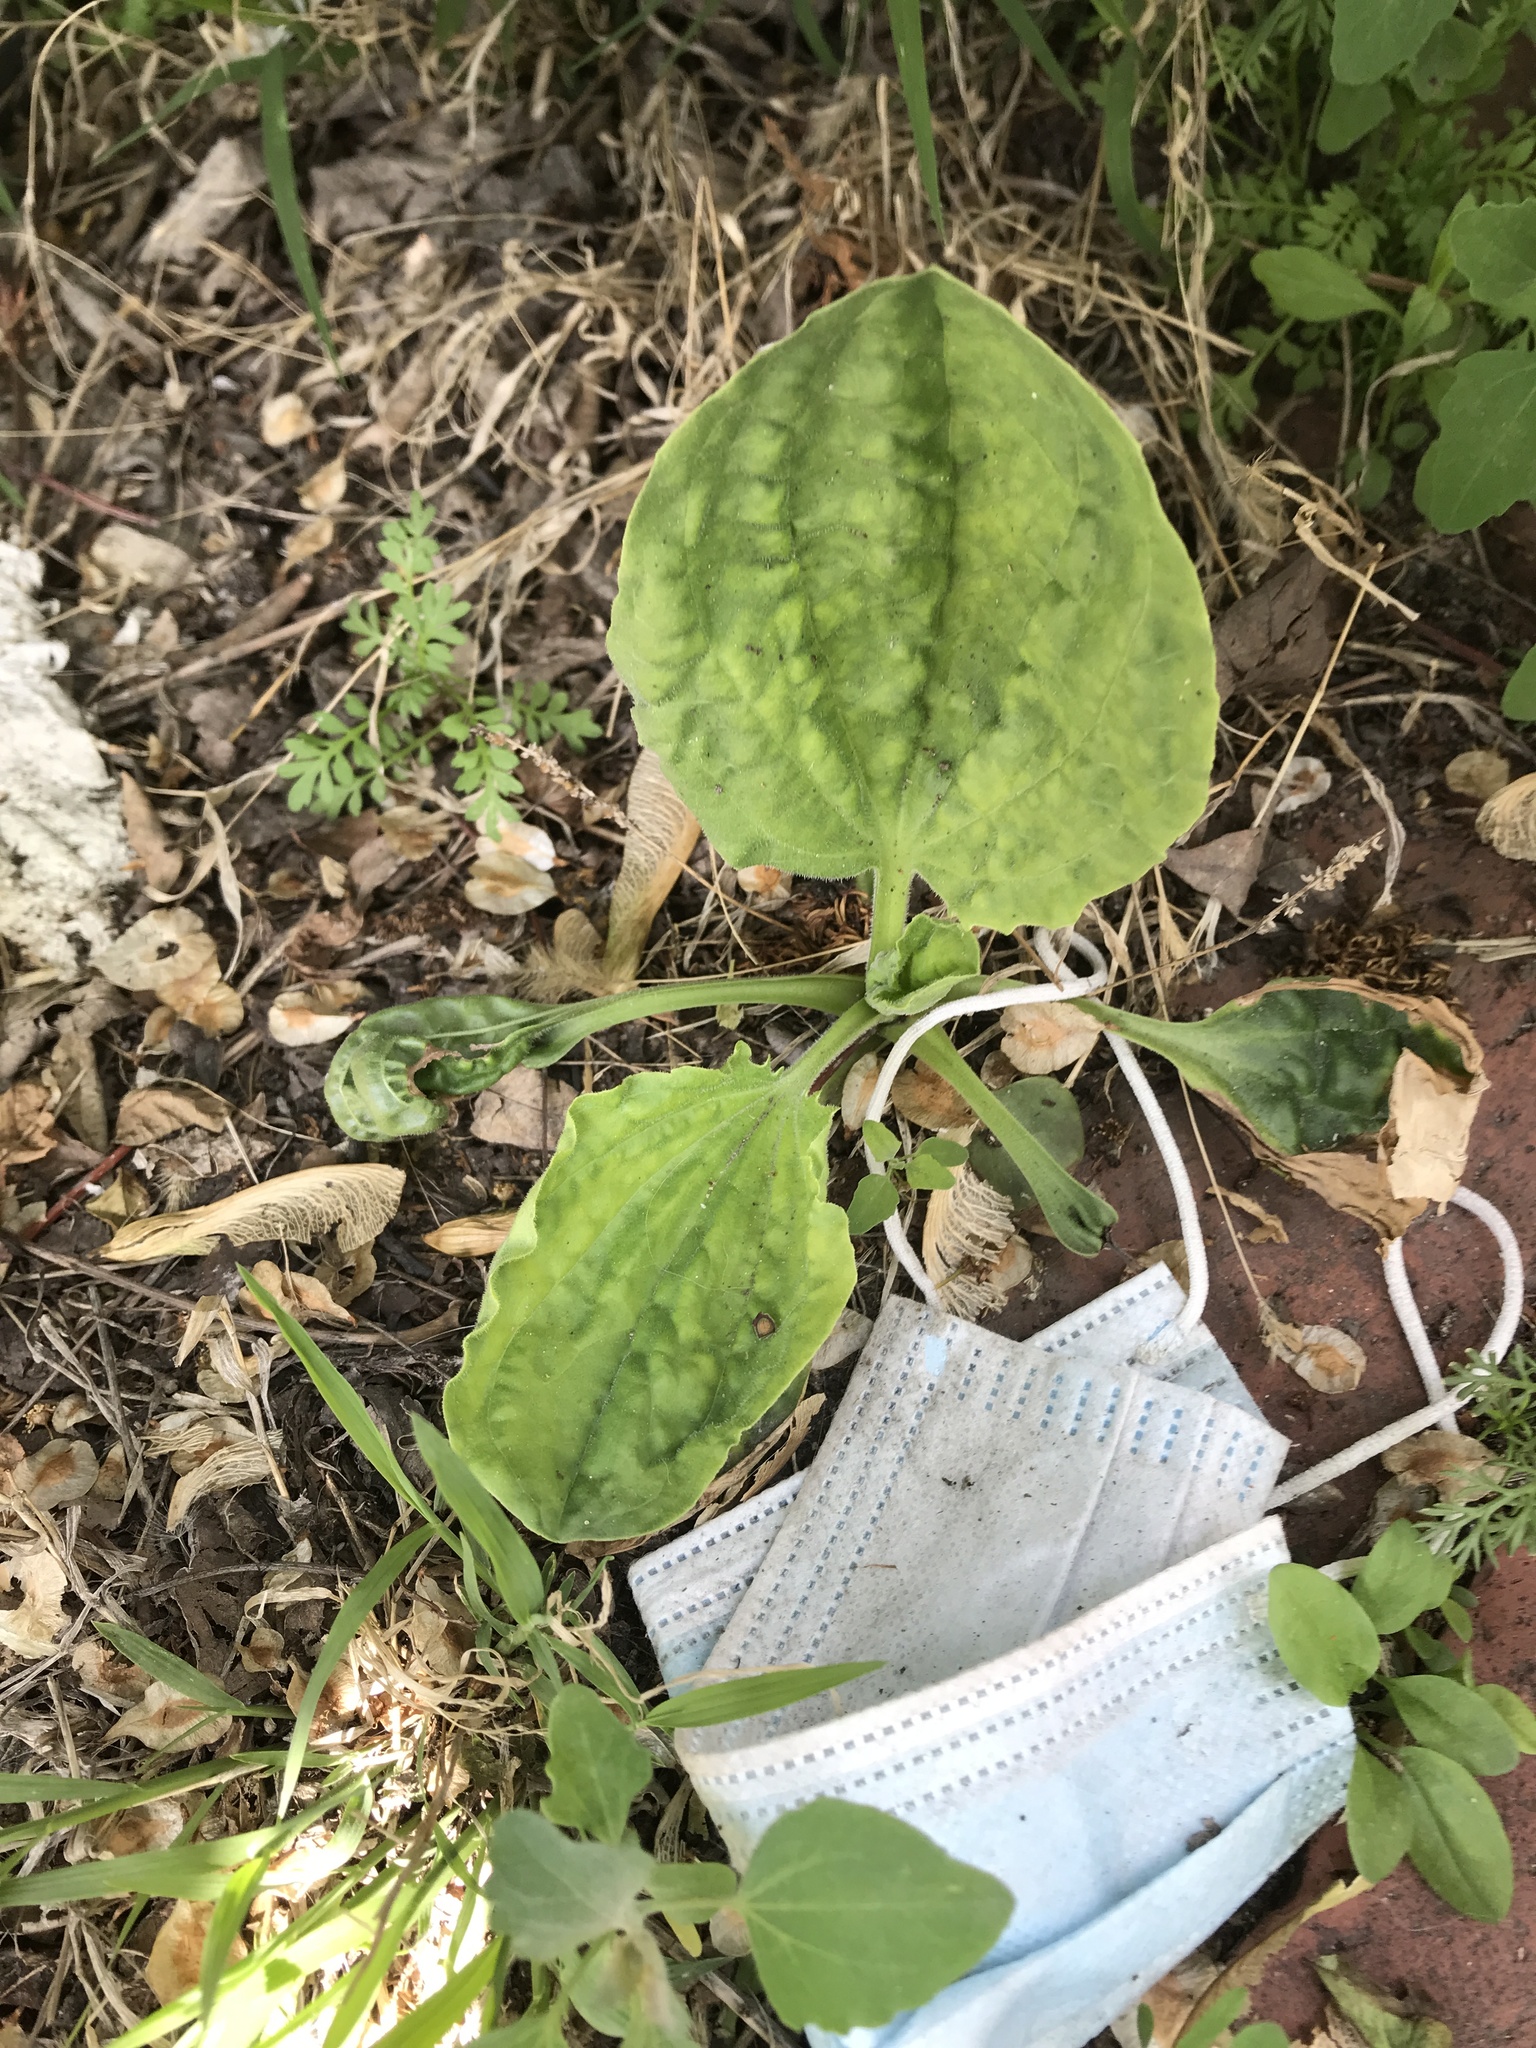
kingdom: Plantae
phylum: Tracheophyta
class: Magnoliopsida
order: Lamiales
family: Plantaginaceae
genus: Plantago
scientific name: Plantago major
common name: Common plantain
